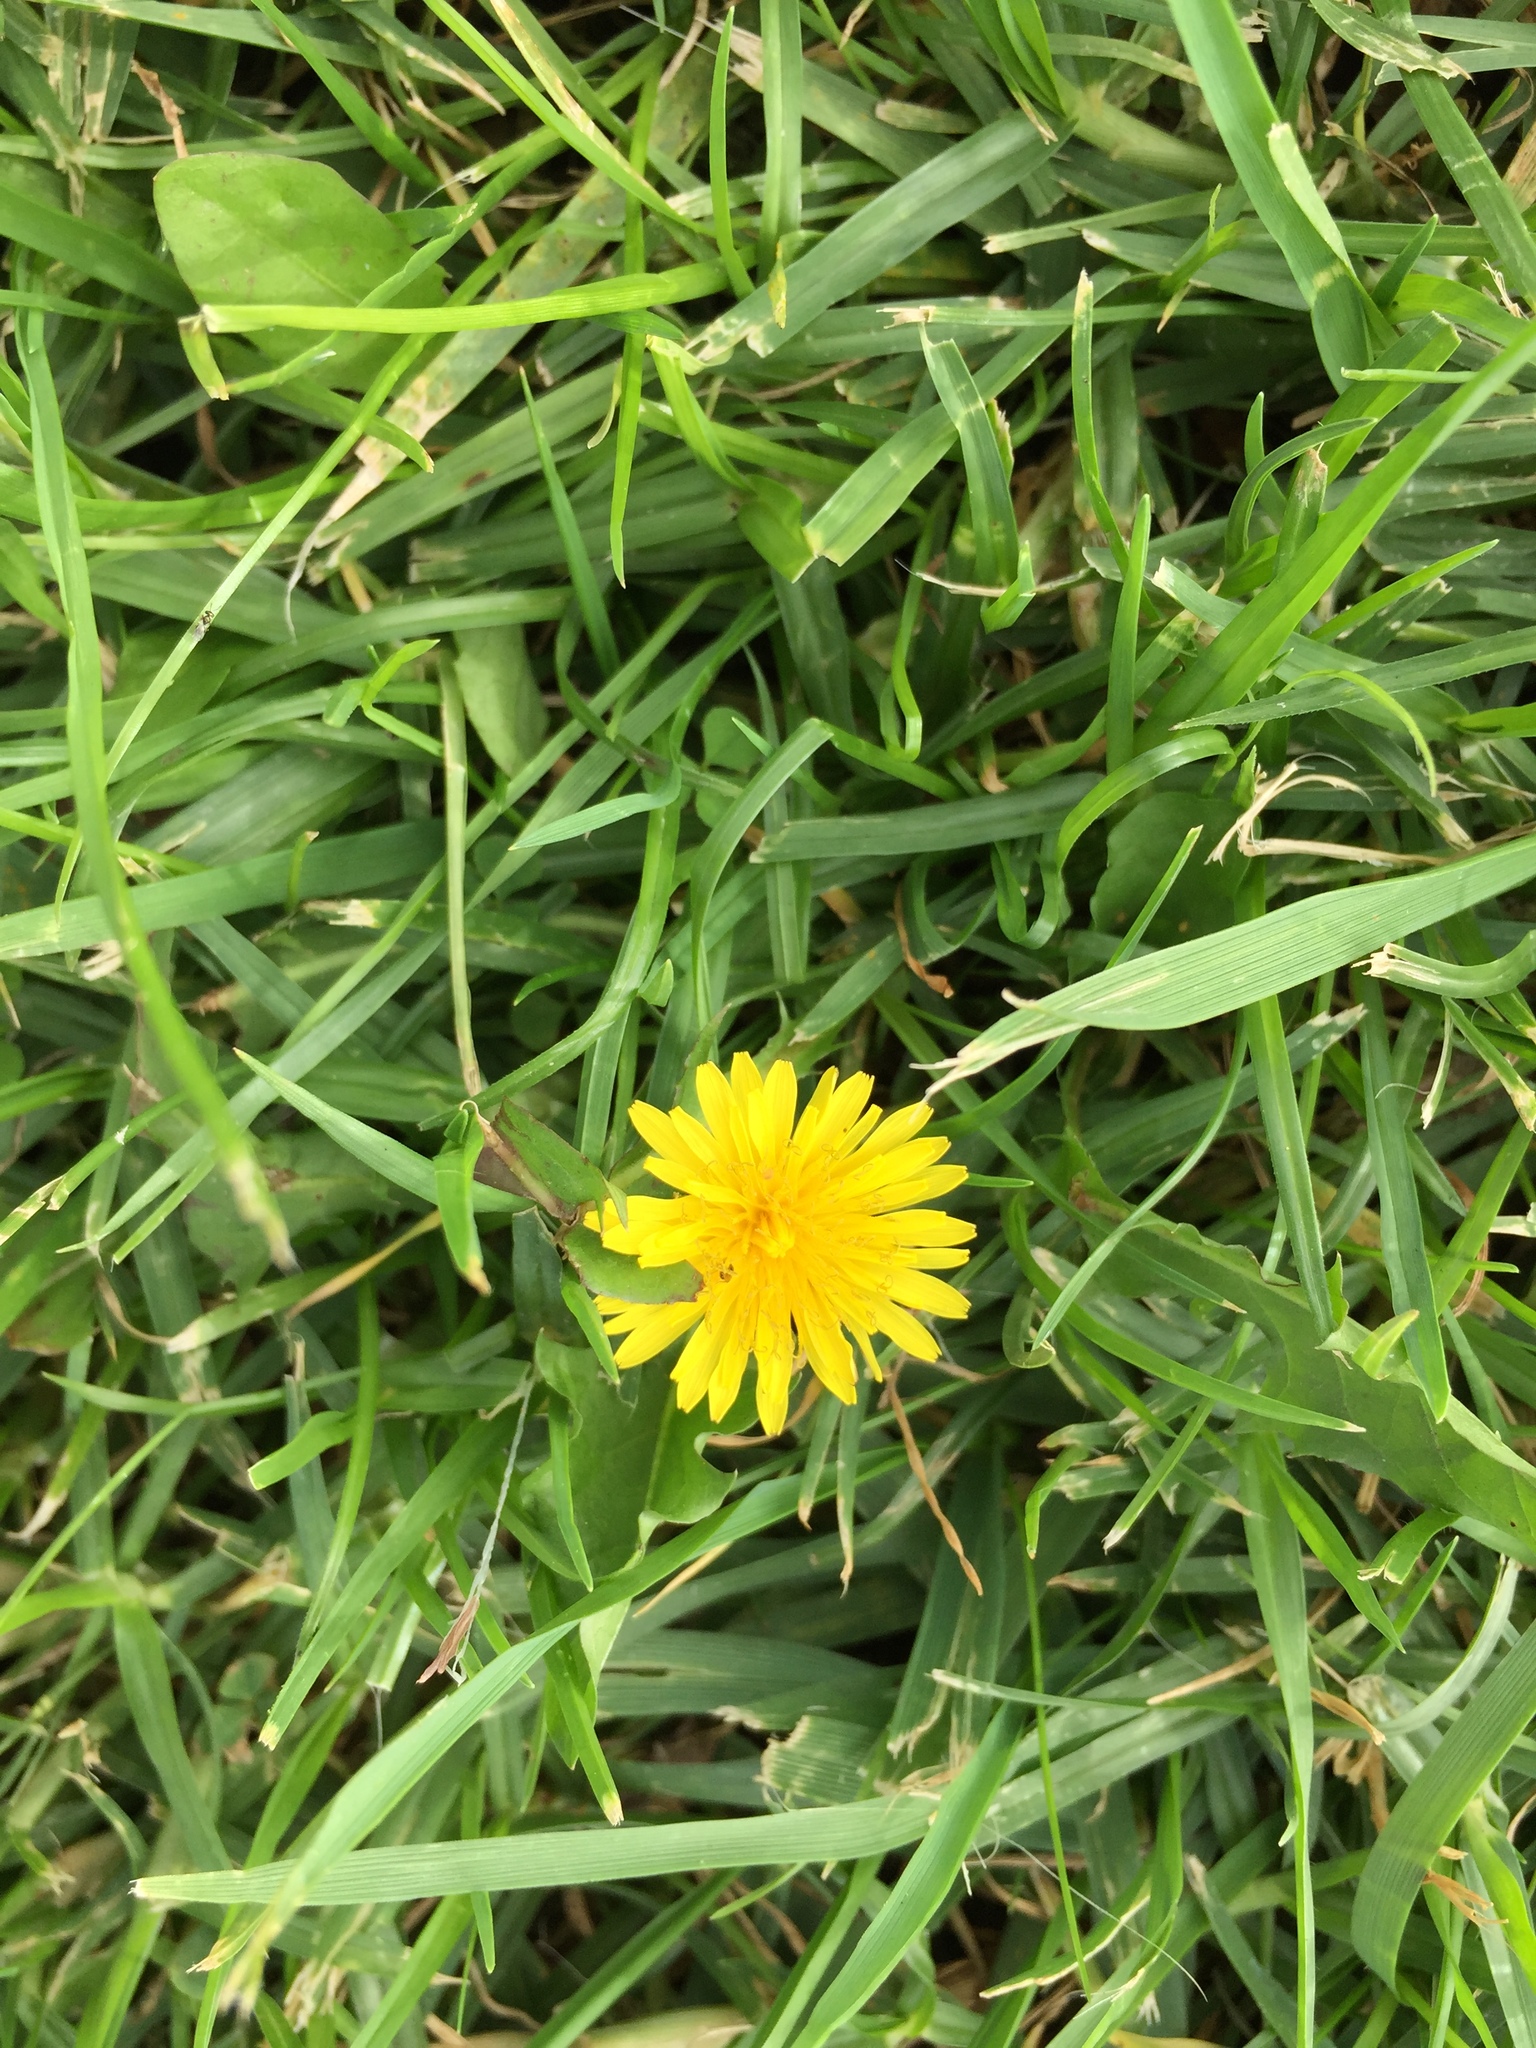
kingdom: Plantae
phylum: Tracheophyta
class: Magnoliopsida
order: Asterales
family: Asteraceae
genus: Taraxacum
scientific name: Taraxacum officinale
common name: Common dandelion
